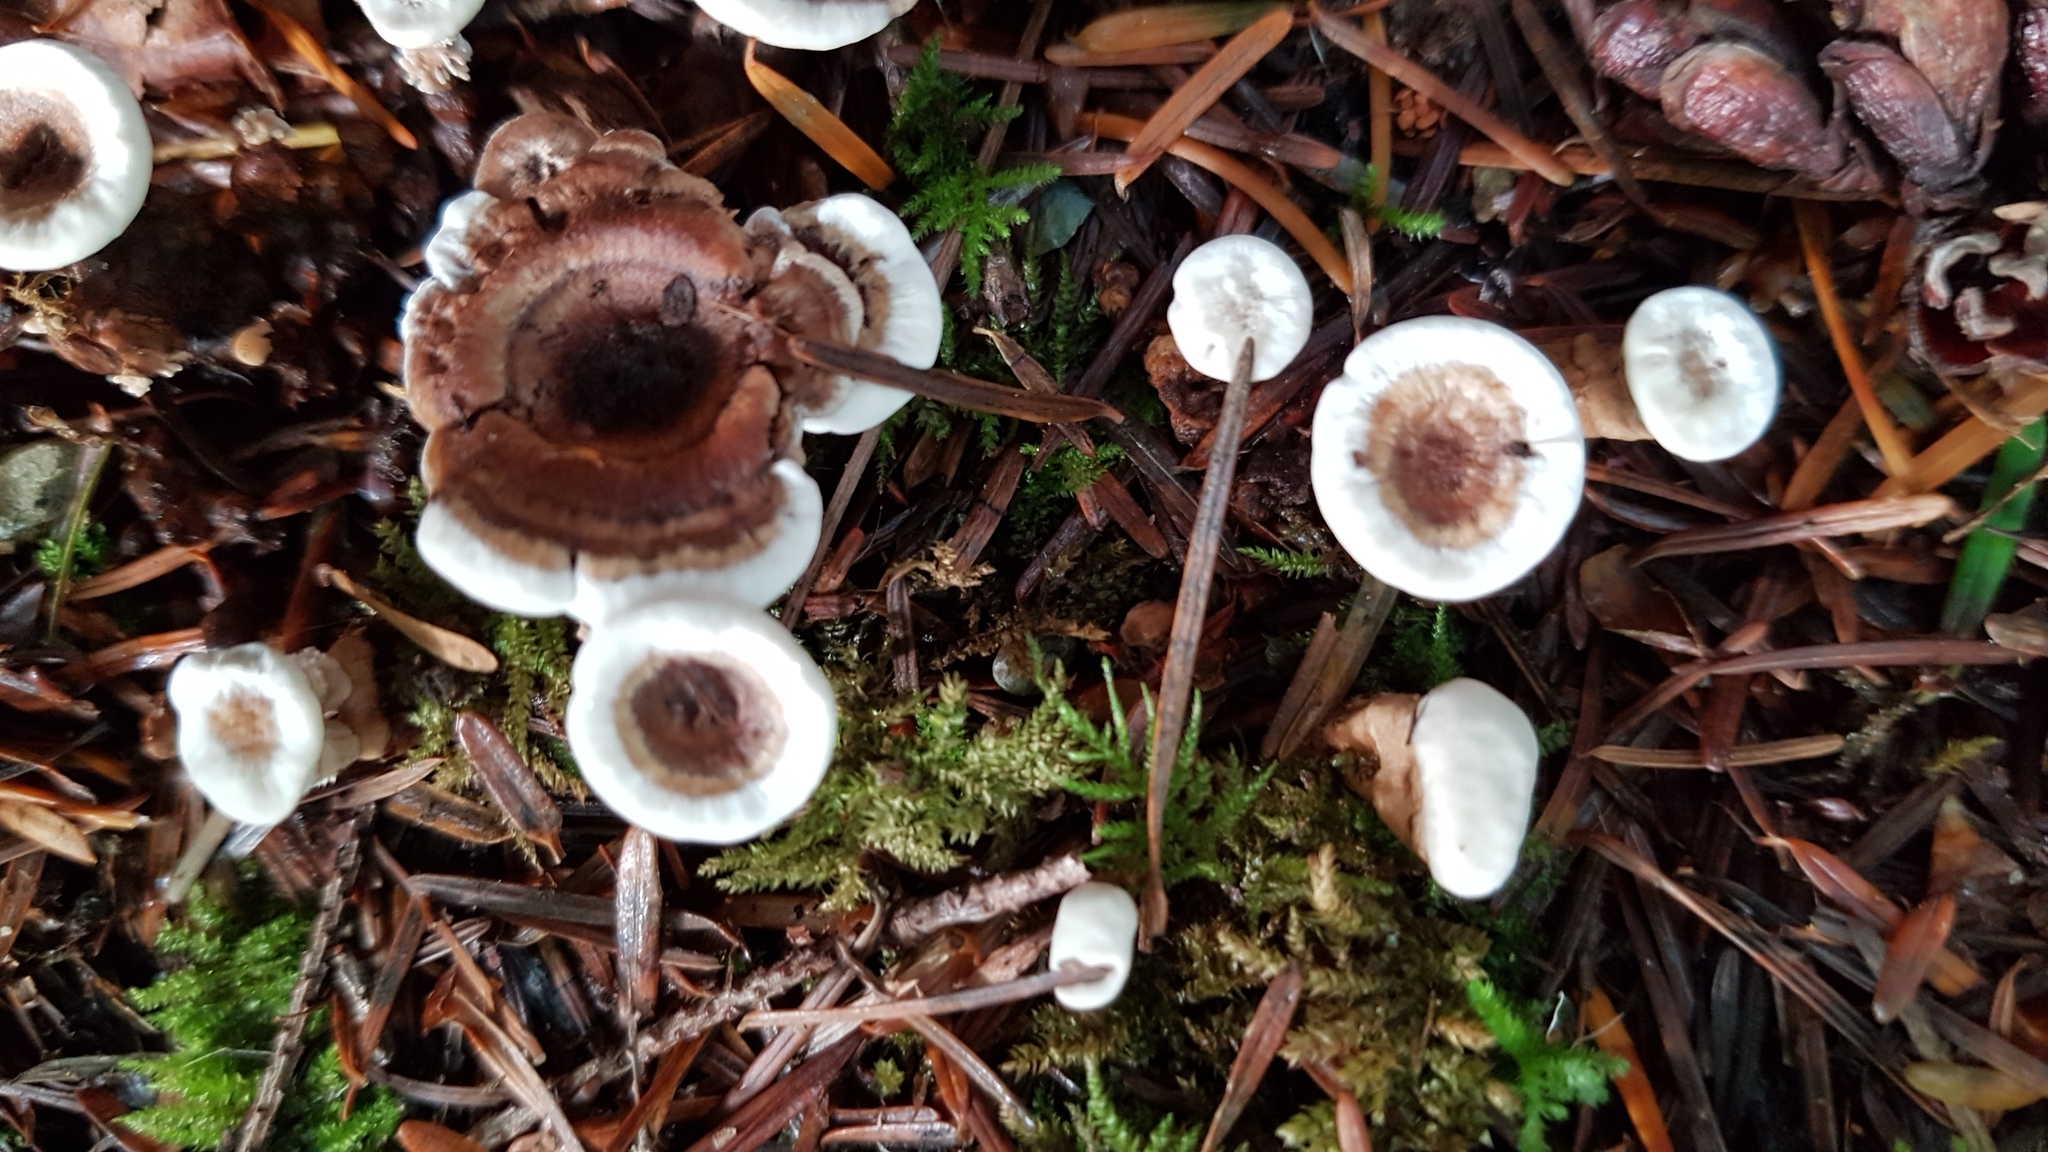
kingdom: Fungi
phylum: Basidiomycota
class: Agaricomycetes
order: Thelephorales
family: Thelephoraceae
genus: Phellodon
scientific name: Phellodon tomentosus
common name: Woolly tooth
